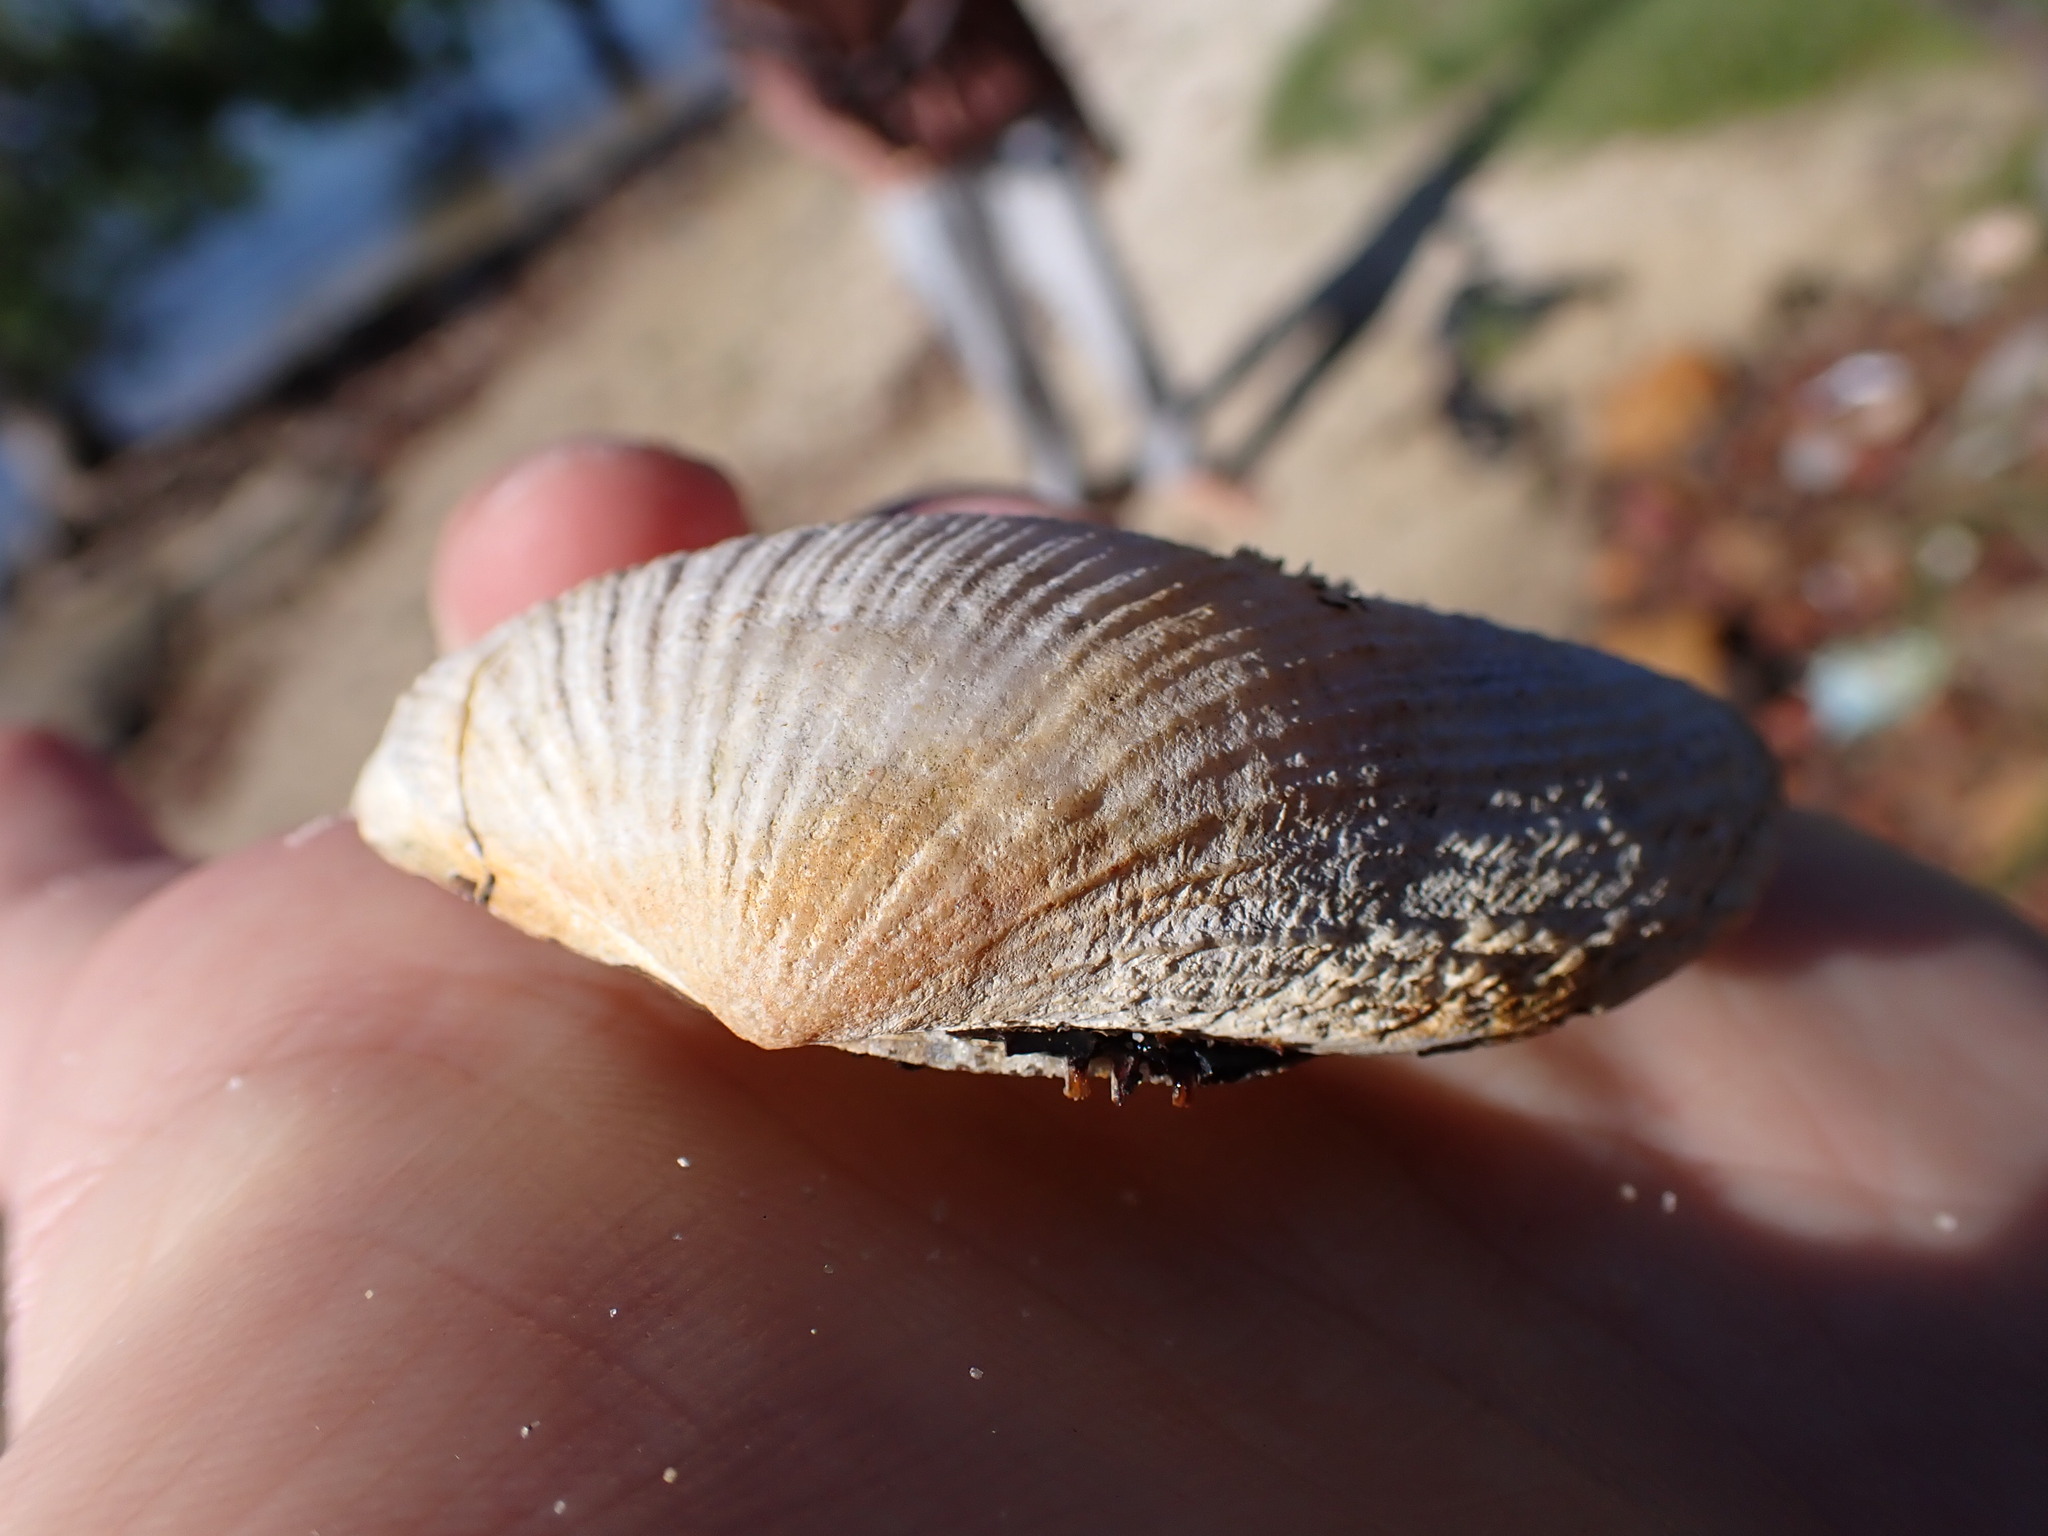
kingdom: Animalia
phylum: Mollusca
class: Bivalvia
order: Cardiida
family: Psammobiidae
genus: Asaphis
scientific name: Asaphis violascens
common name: Pacific asaphis
